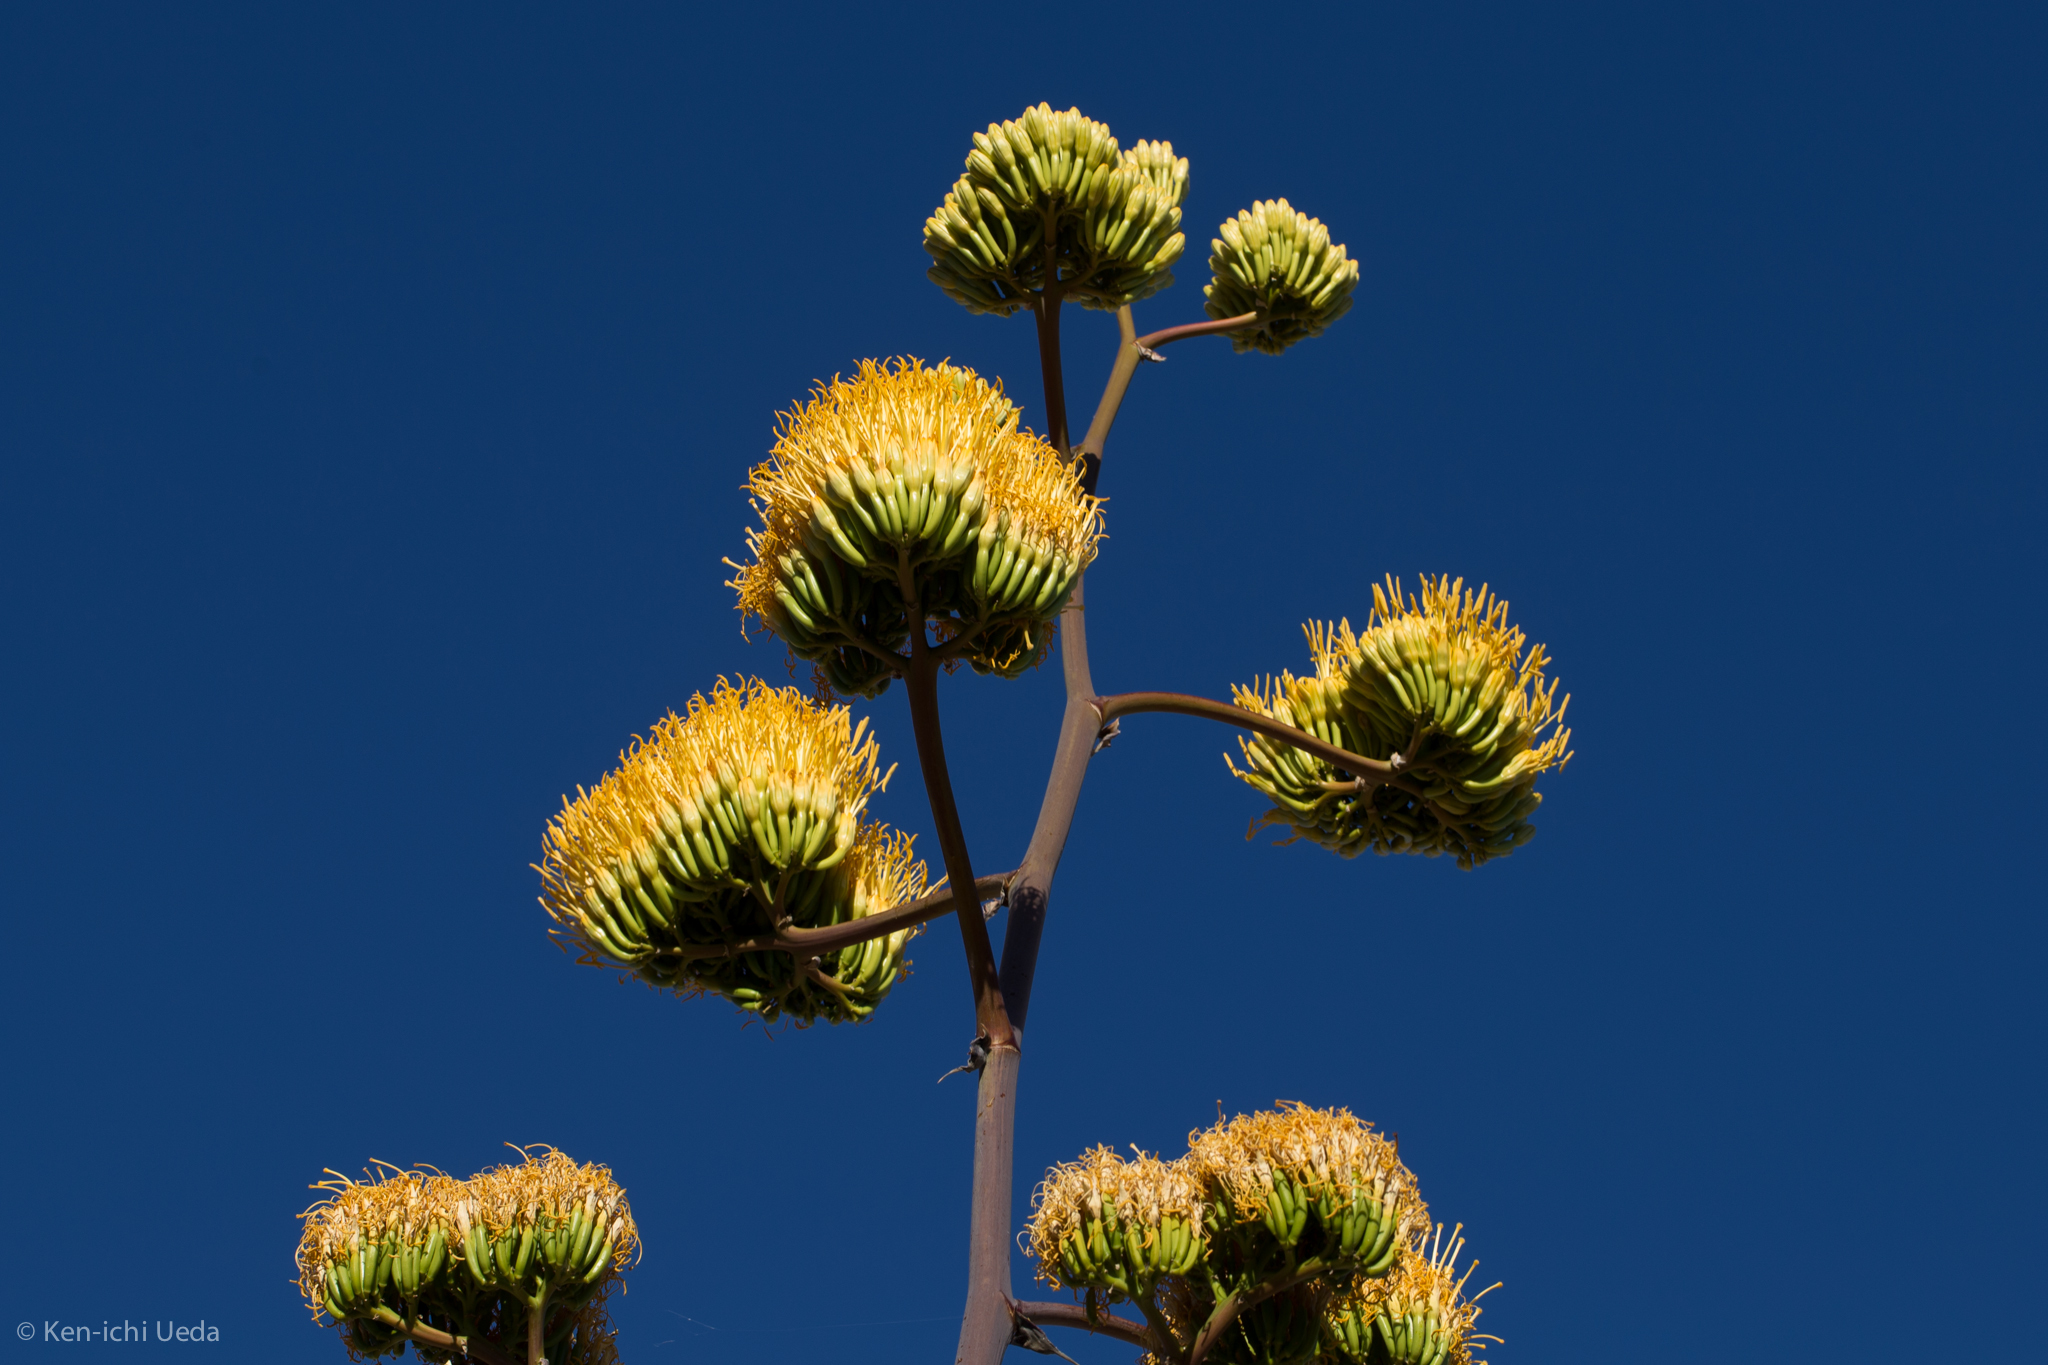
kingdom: Plantae
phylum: Tracheophyta
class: Liliopsida
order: Asparagales
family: Asparagaceae
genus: Agave
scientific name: Agave chrysantha
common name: Golden-flowered agave
